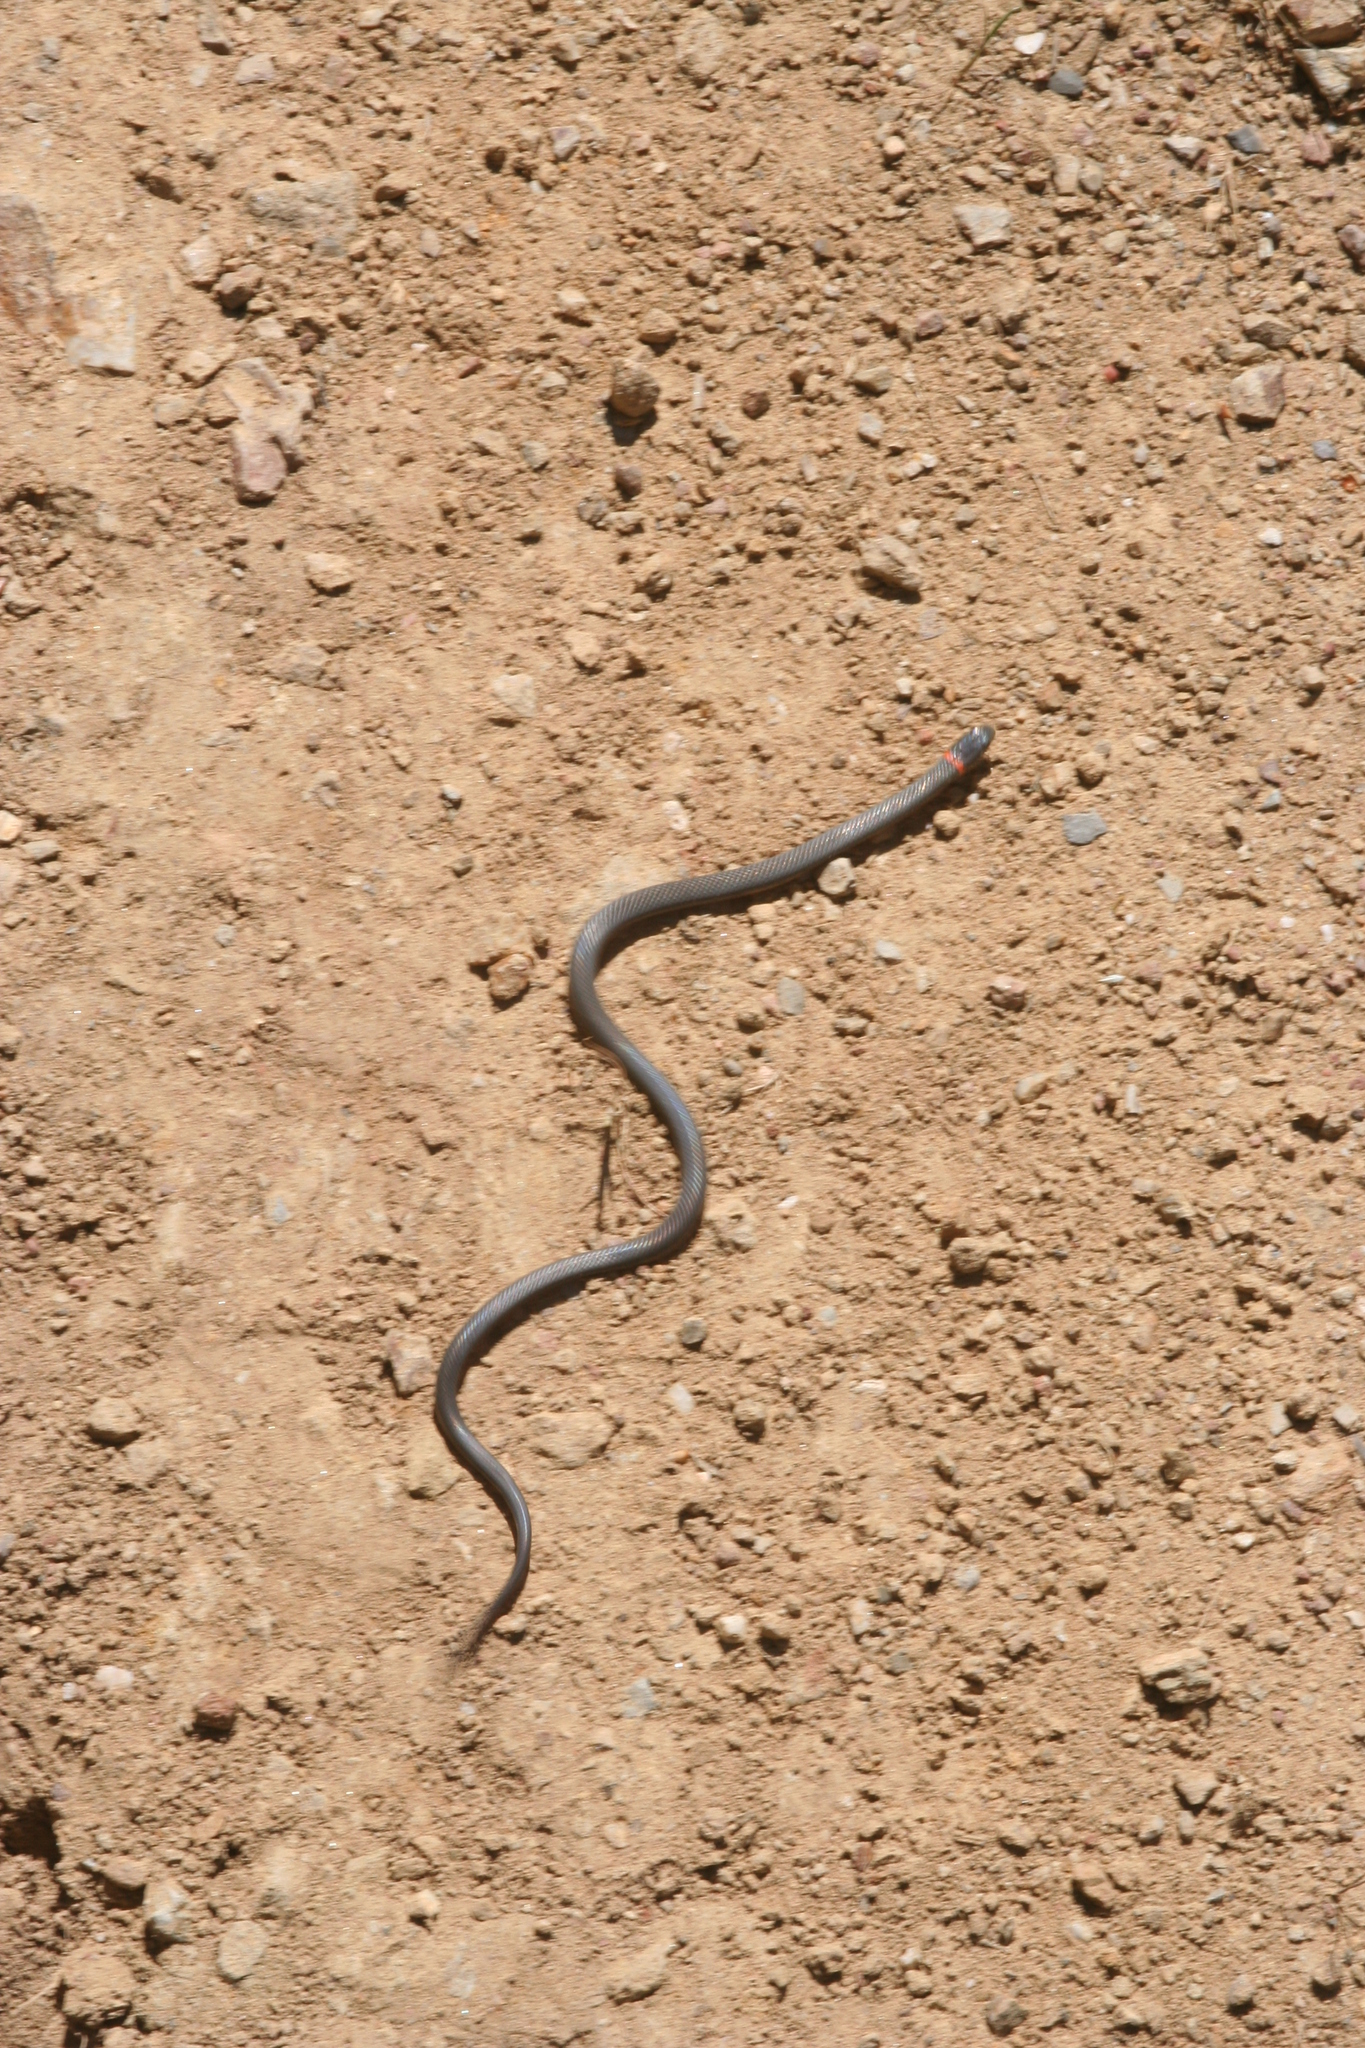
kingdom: Animalia
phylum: Chordata
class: Squamata
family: Colubridae
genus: Diadophis
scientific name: Diadophis punctatus
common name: Ringneck snake
